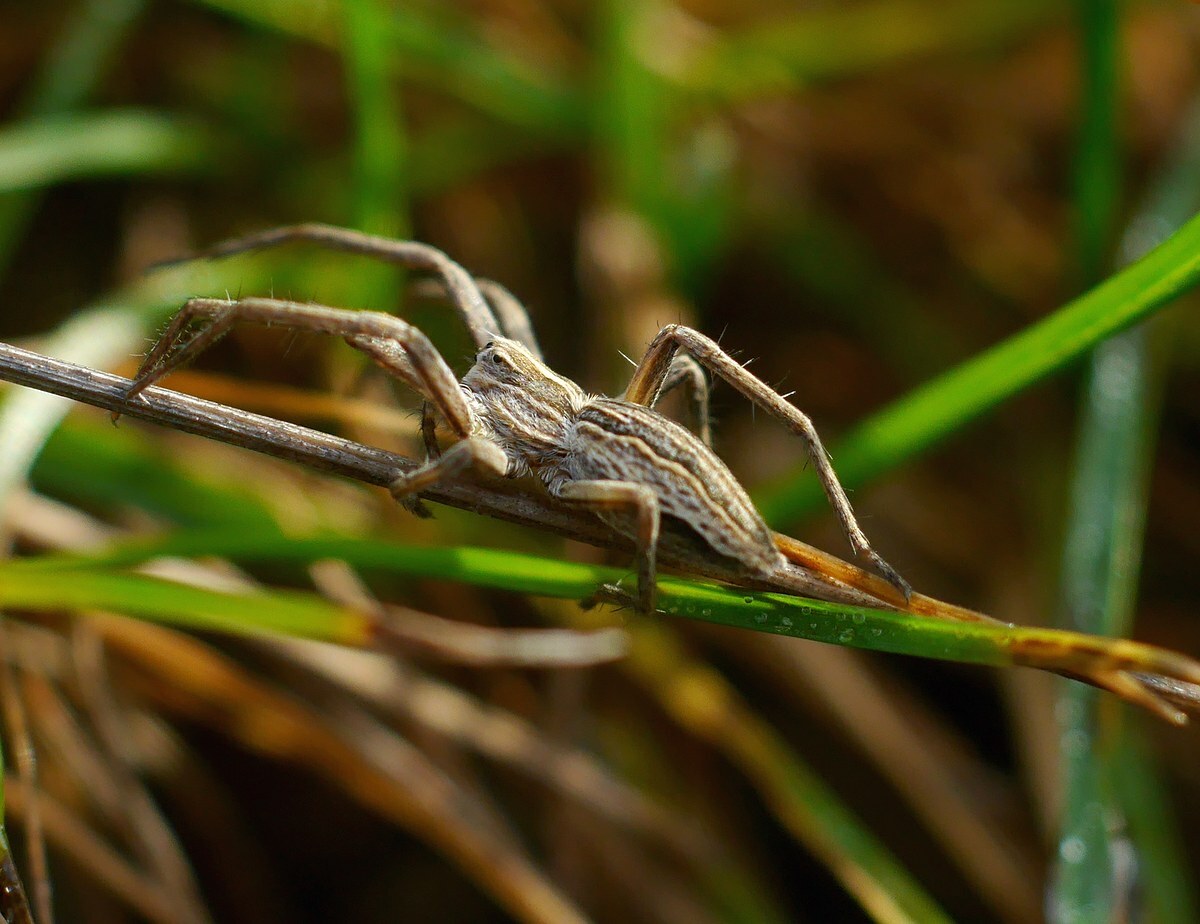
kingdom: Animalia
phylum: Arthropoda
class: Arachnida
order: Araneae
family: Pisauridae
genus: Pisaura
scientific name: Pisaura
